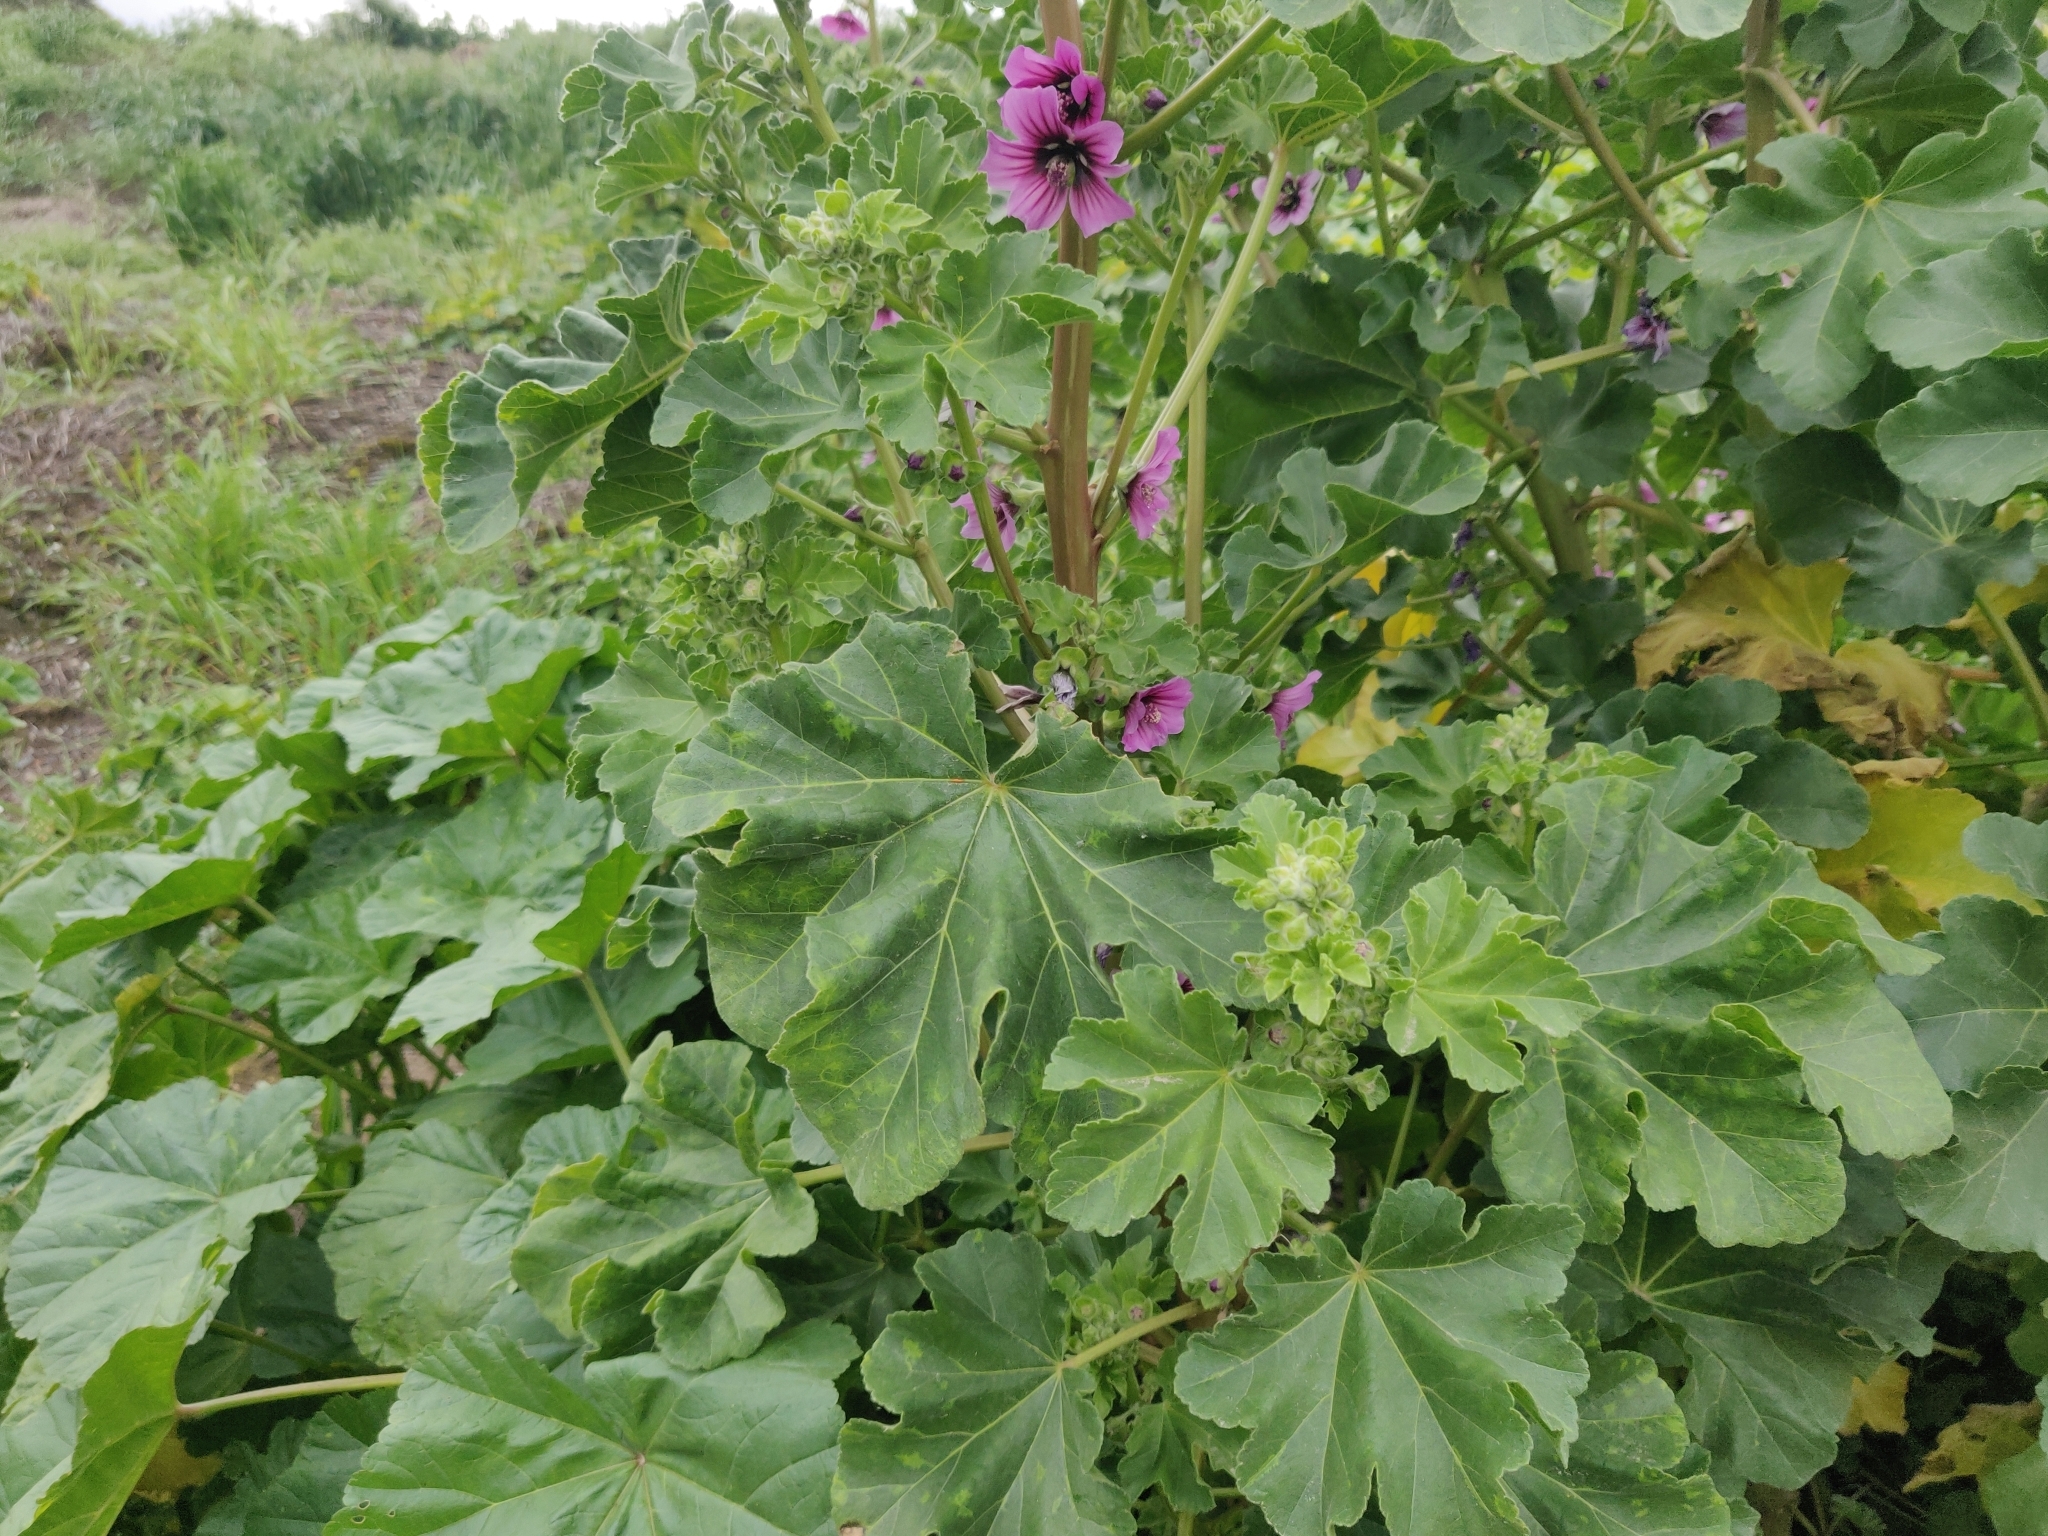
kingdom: Plantae
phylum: Tracheophyta
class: Magnoliopsida
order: Malvales
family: Malvaceae
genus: Malva
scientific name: Malva arborea
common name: Tree mallow
